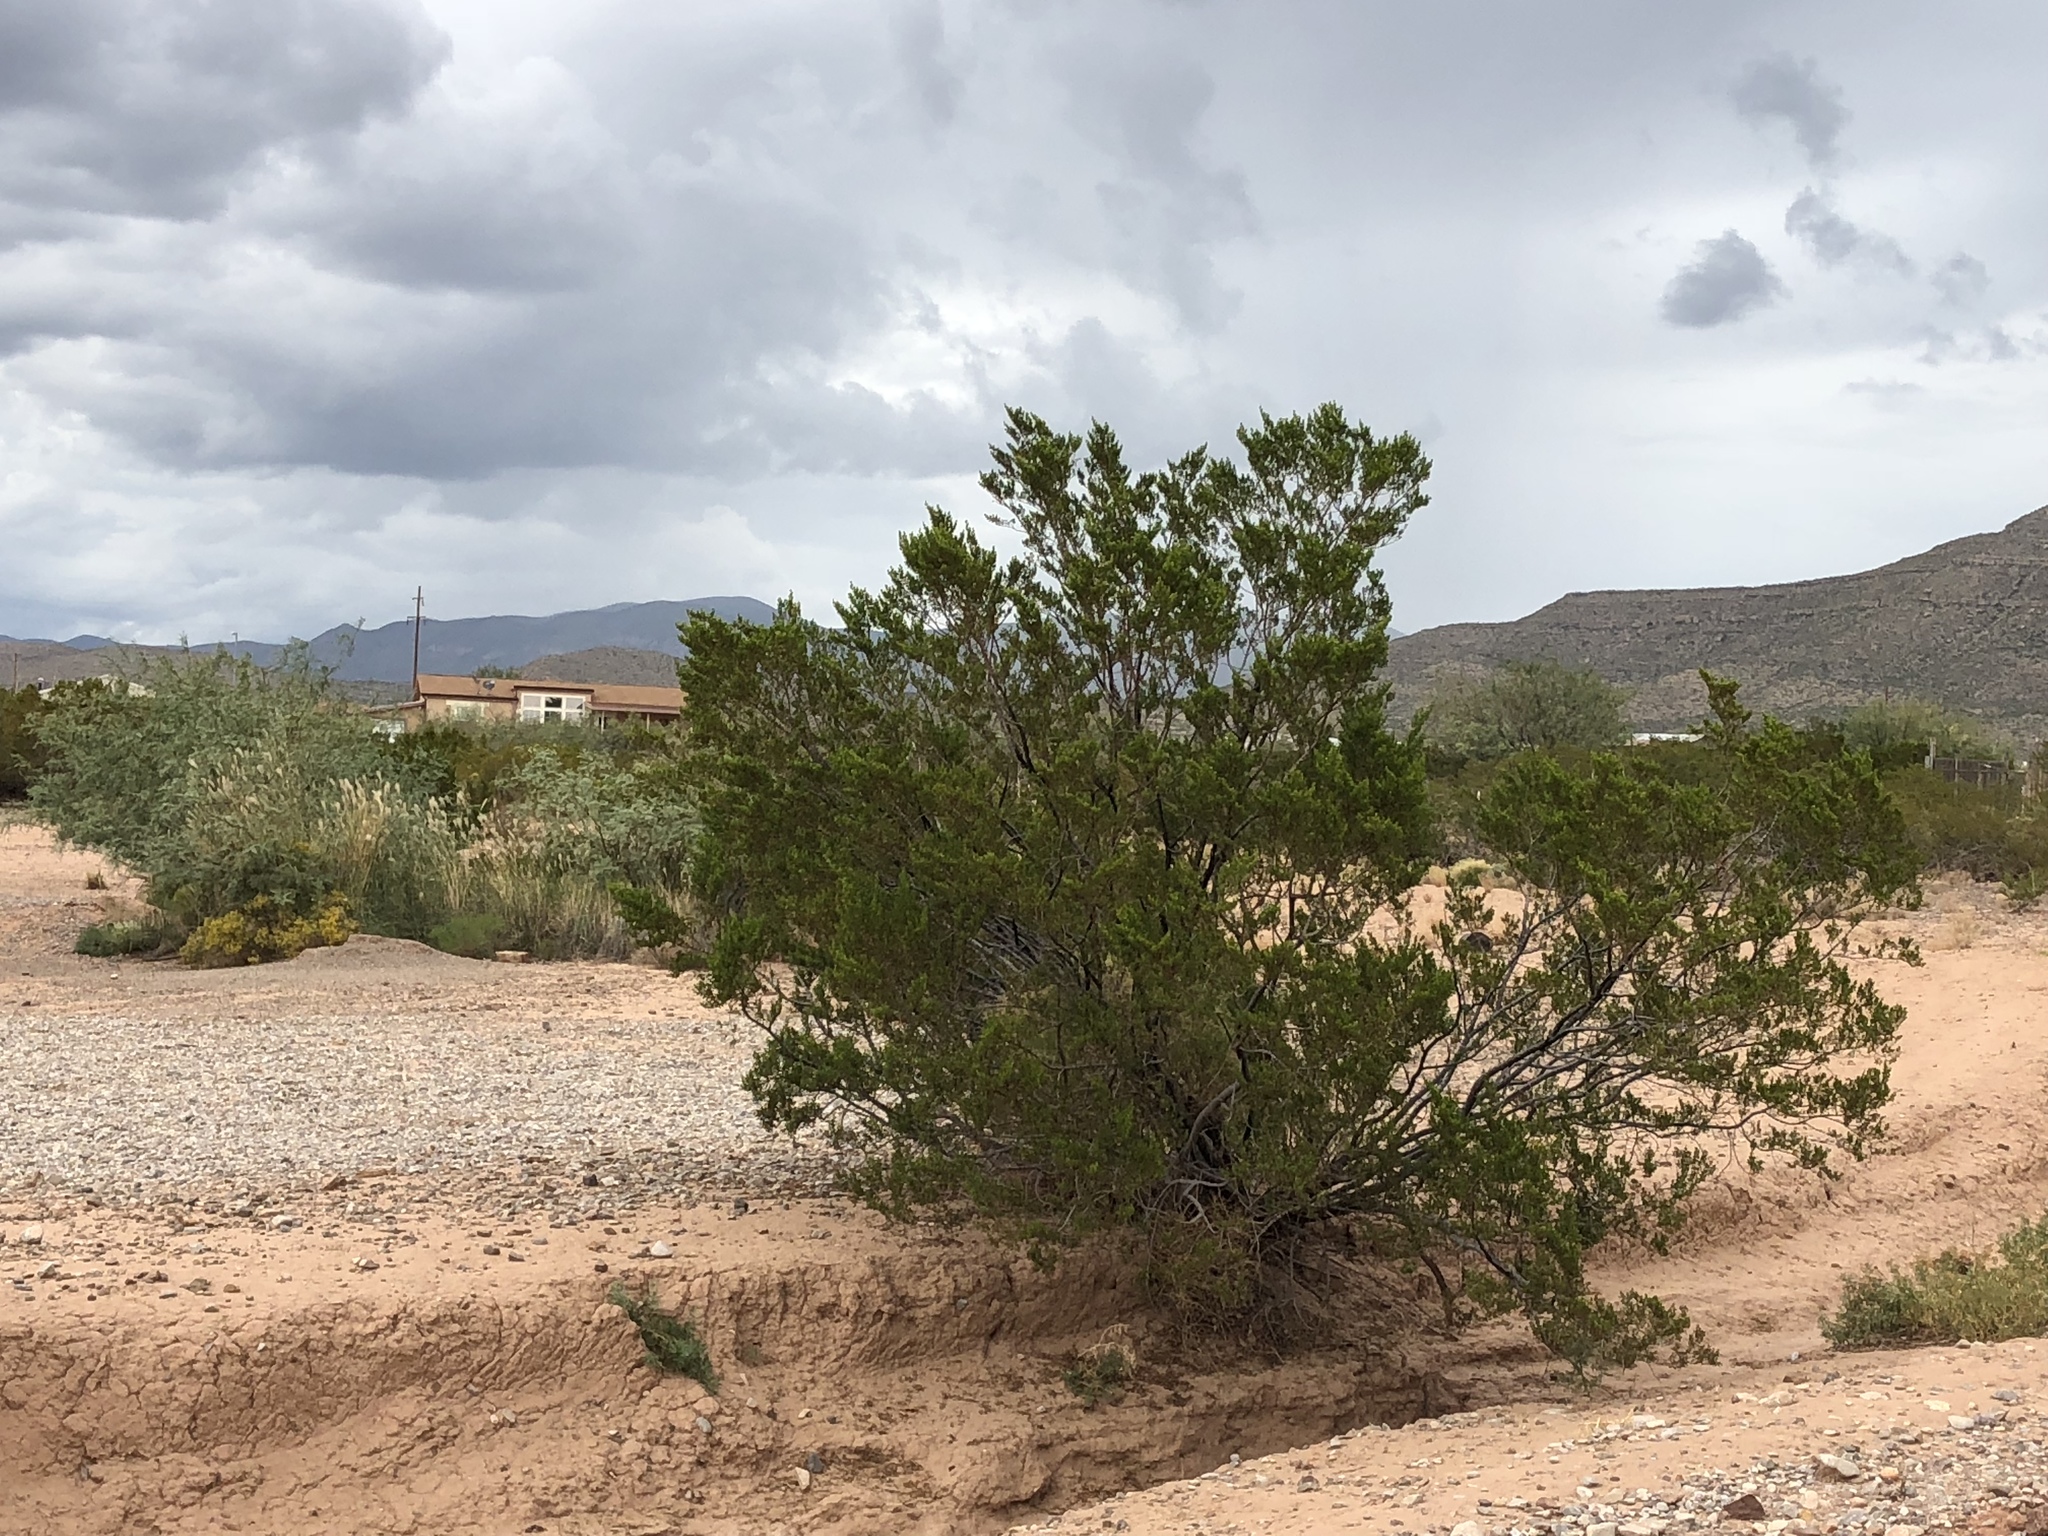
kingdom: Plantae
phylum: Tracheophyta
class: Magnoliopsida
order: Zygophyllales
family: Zygophyllaceae
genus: Larrea
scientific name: Larrea tridentata
